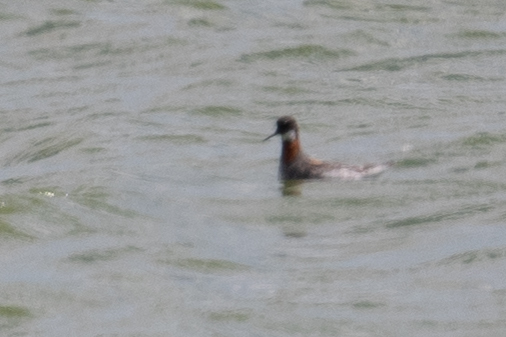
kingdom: Animalia
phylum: Chordata
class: Aves
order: Charadriiformes
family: Scolopacidae
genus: Phalaropus
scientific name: Phalaropus lobatus
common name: Red-necked phalarope
